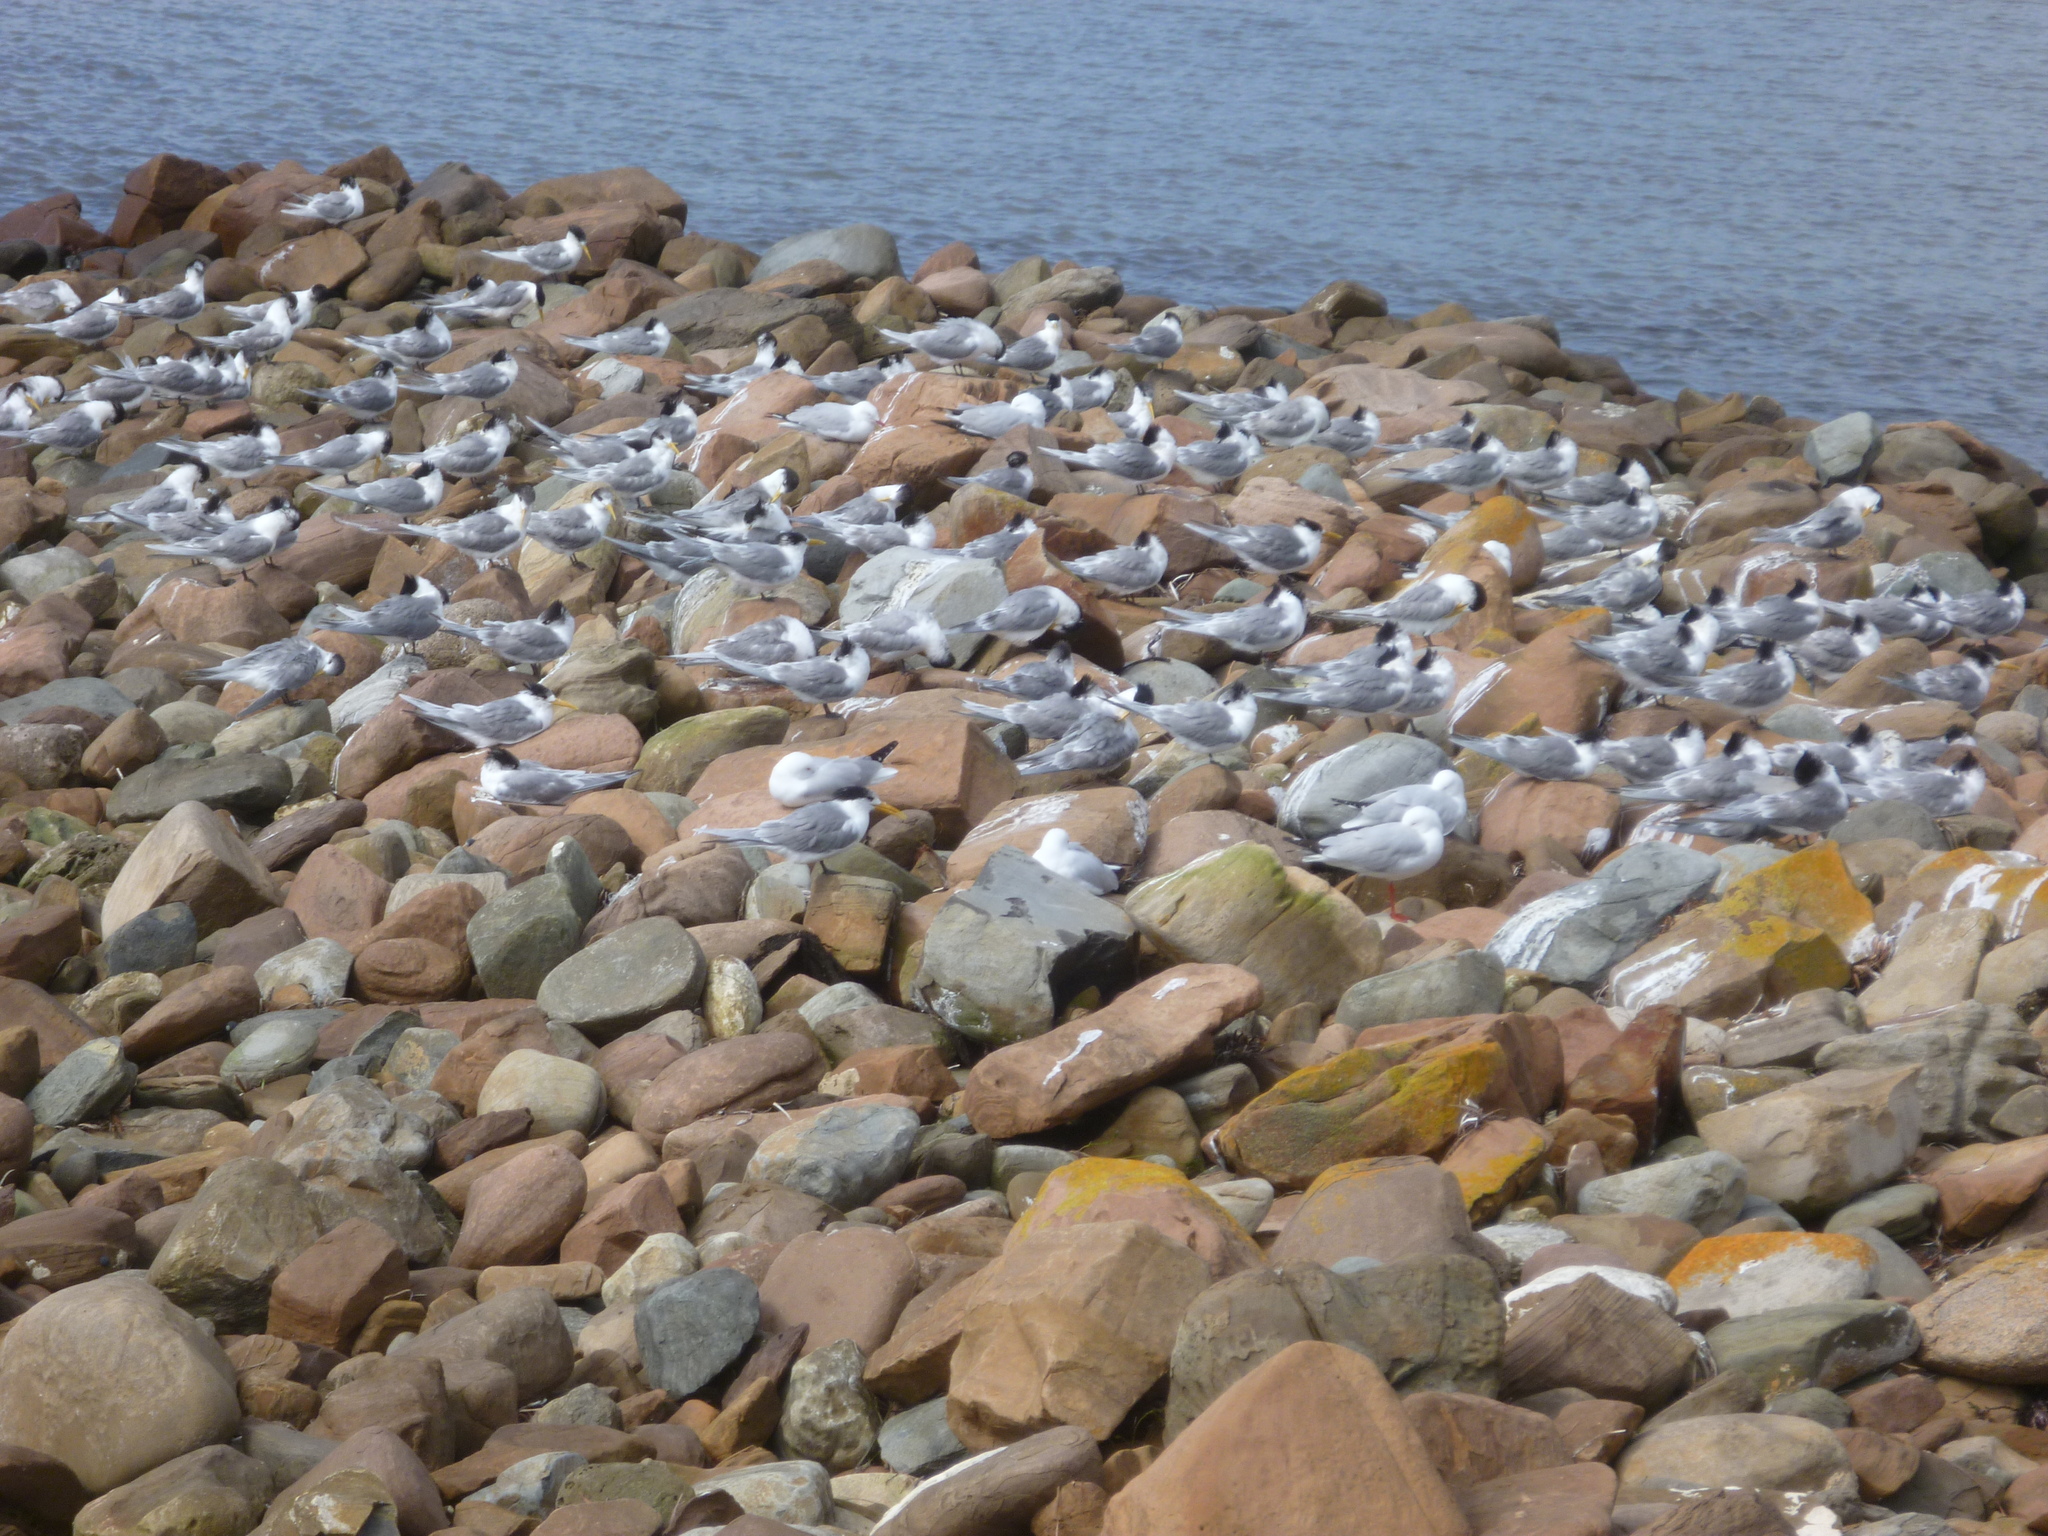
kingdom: Animalia
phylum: Chordata
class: Aves
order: Charadriiformes
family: Laridae
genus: Thalasseus
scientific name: Thalasseus bergii
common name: Greater crested tern
